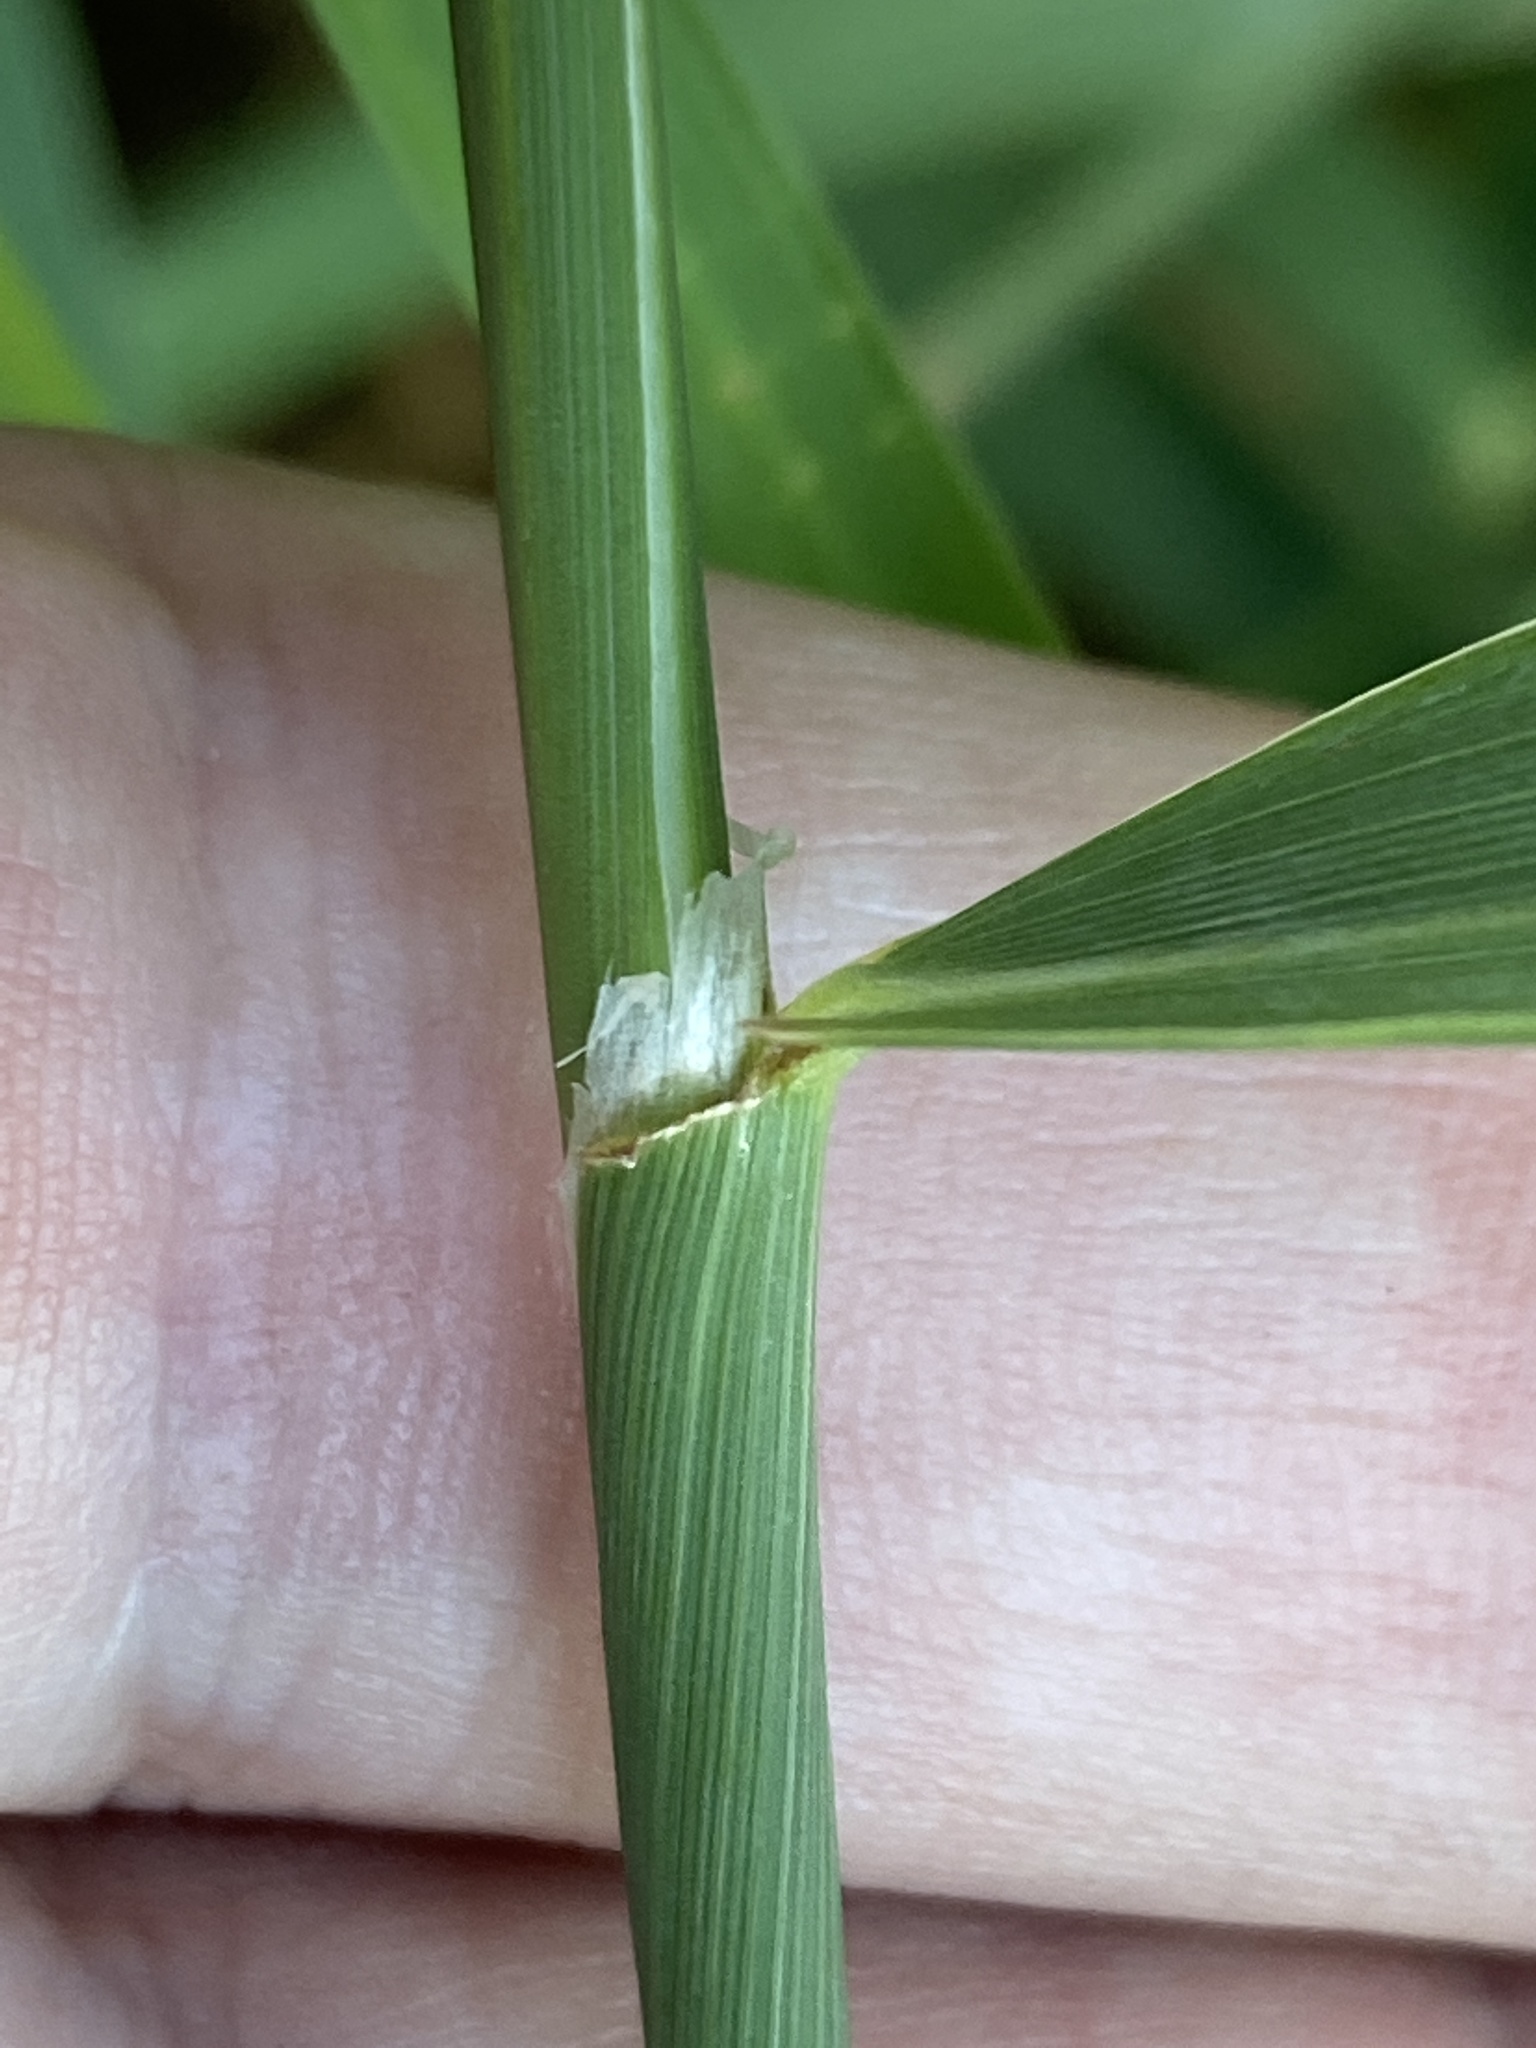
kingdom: Plantae
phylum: Tracheophyta
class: Liliopsida
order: Poales
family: Poaceae
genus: Phalaris
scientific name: Phalaris arundinacea
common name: Reed canary-grass
